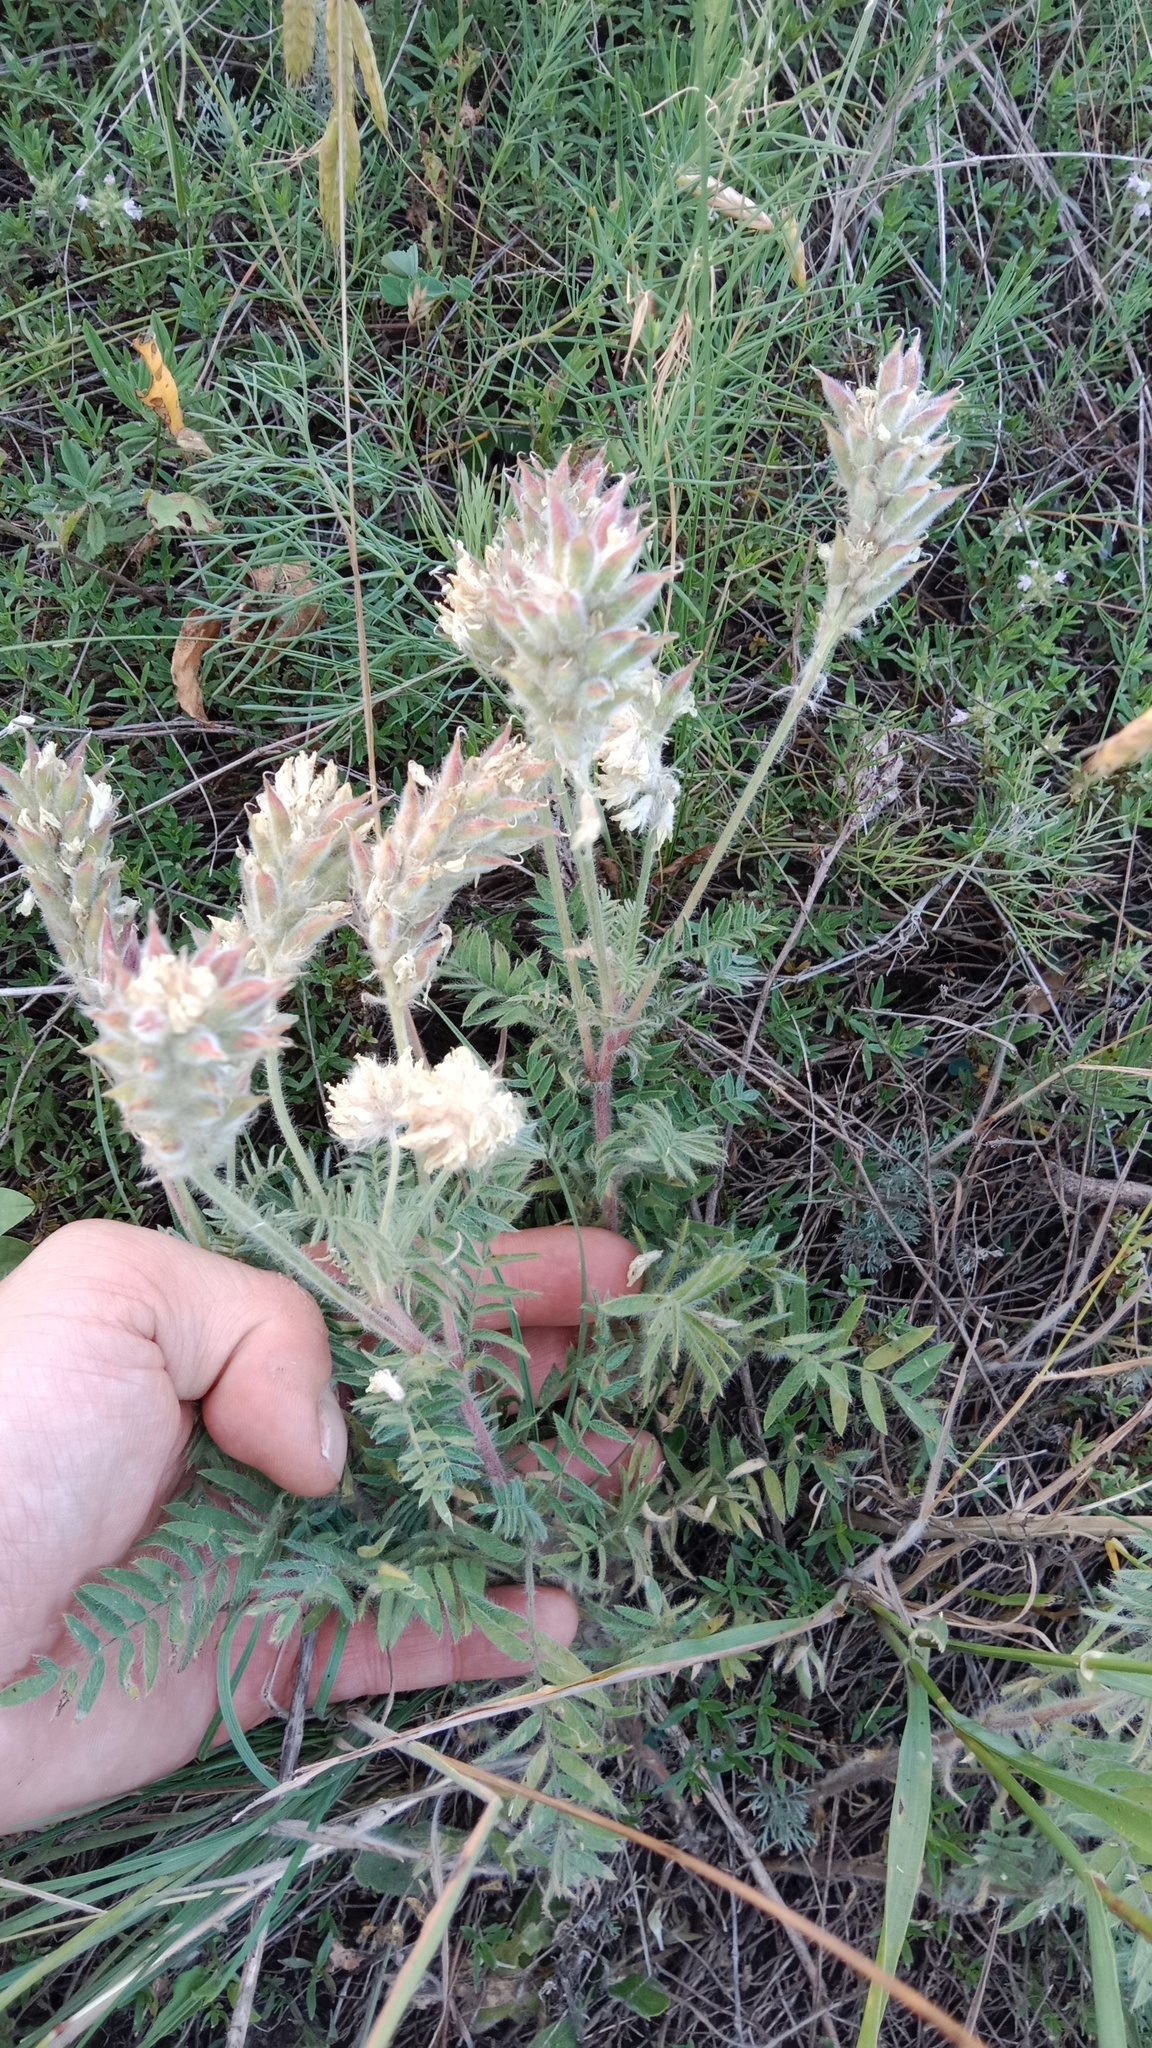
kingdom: Plantae
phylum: Tracheophyta
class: Magnoliopsida
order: Fabales
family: Fabaceae
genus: Oxytropis
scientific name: Oxytropis pilosa
